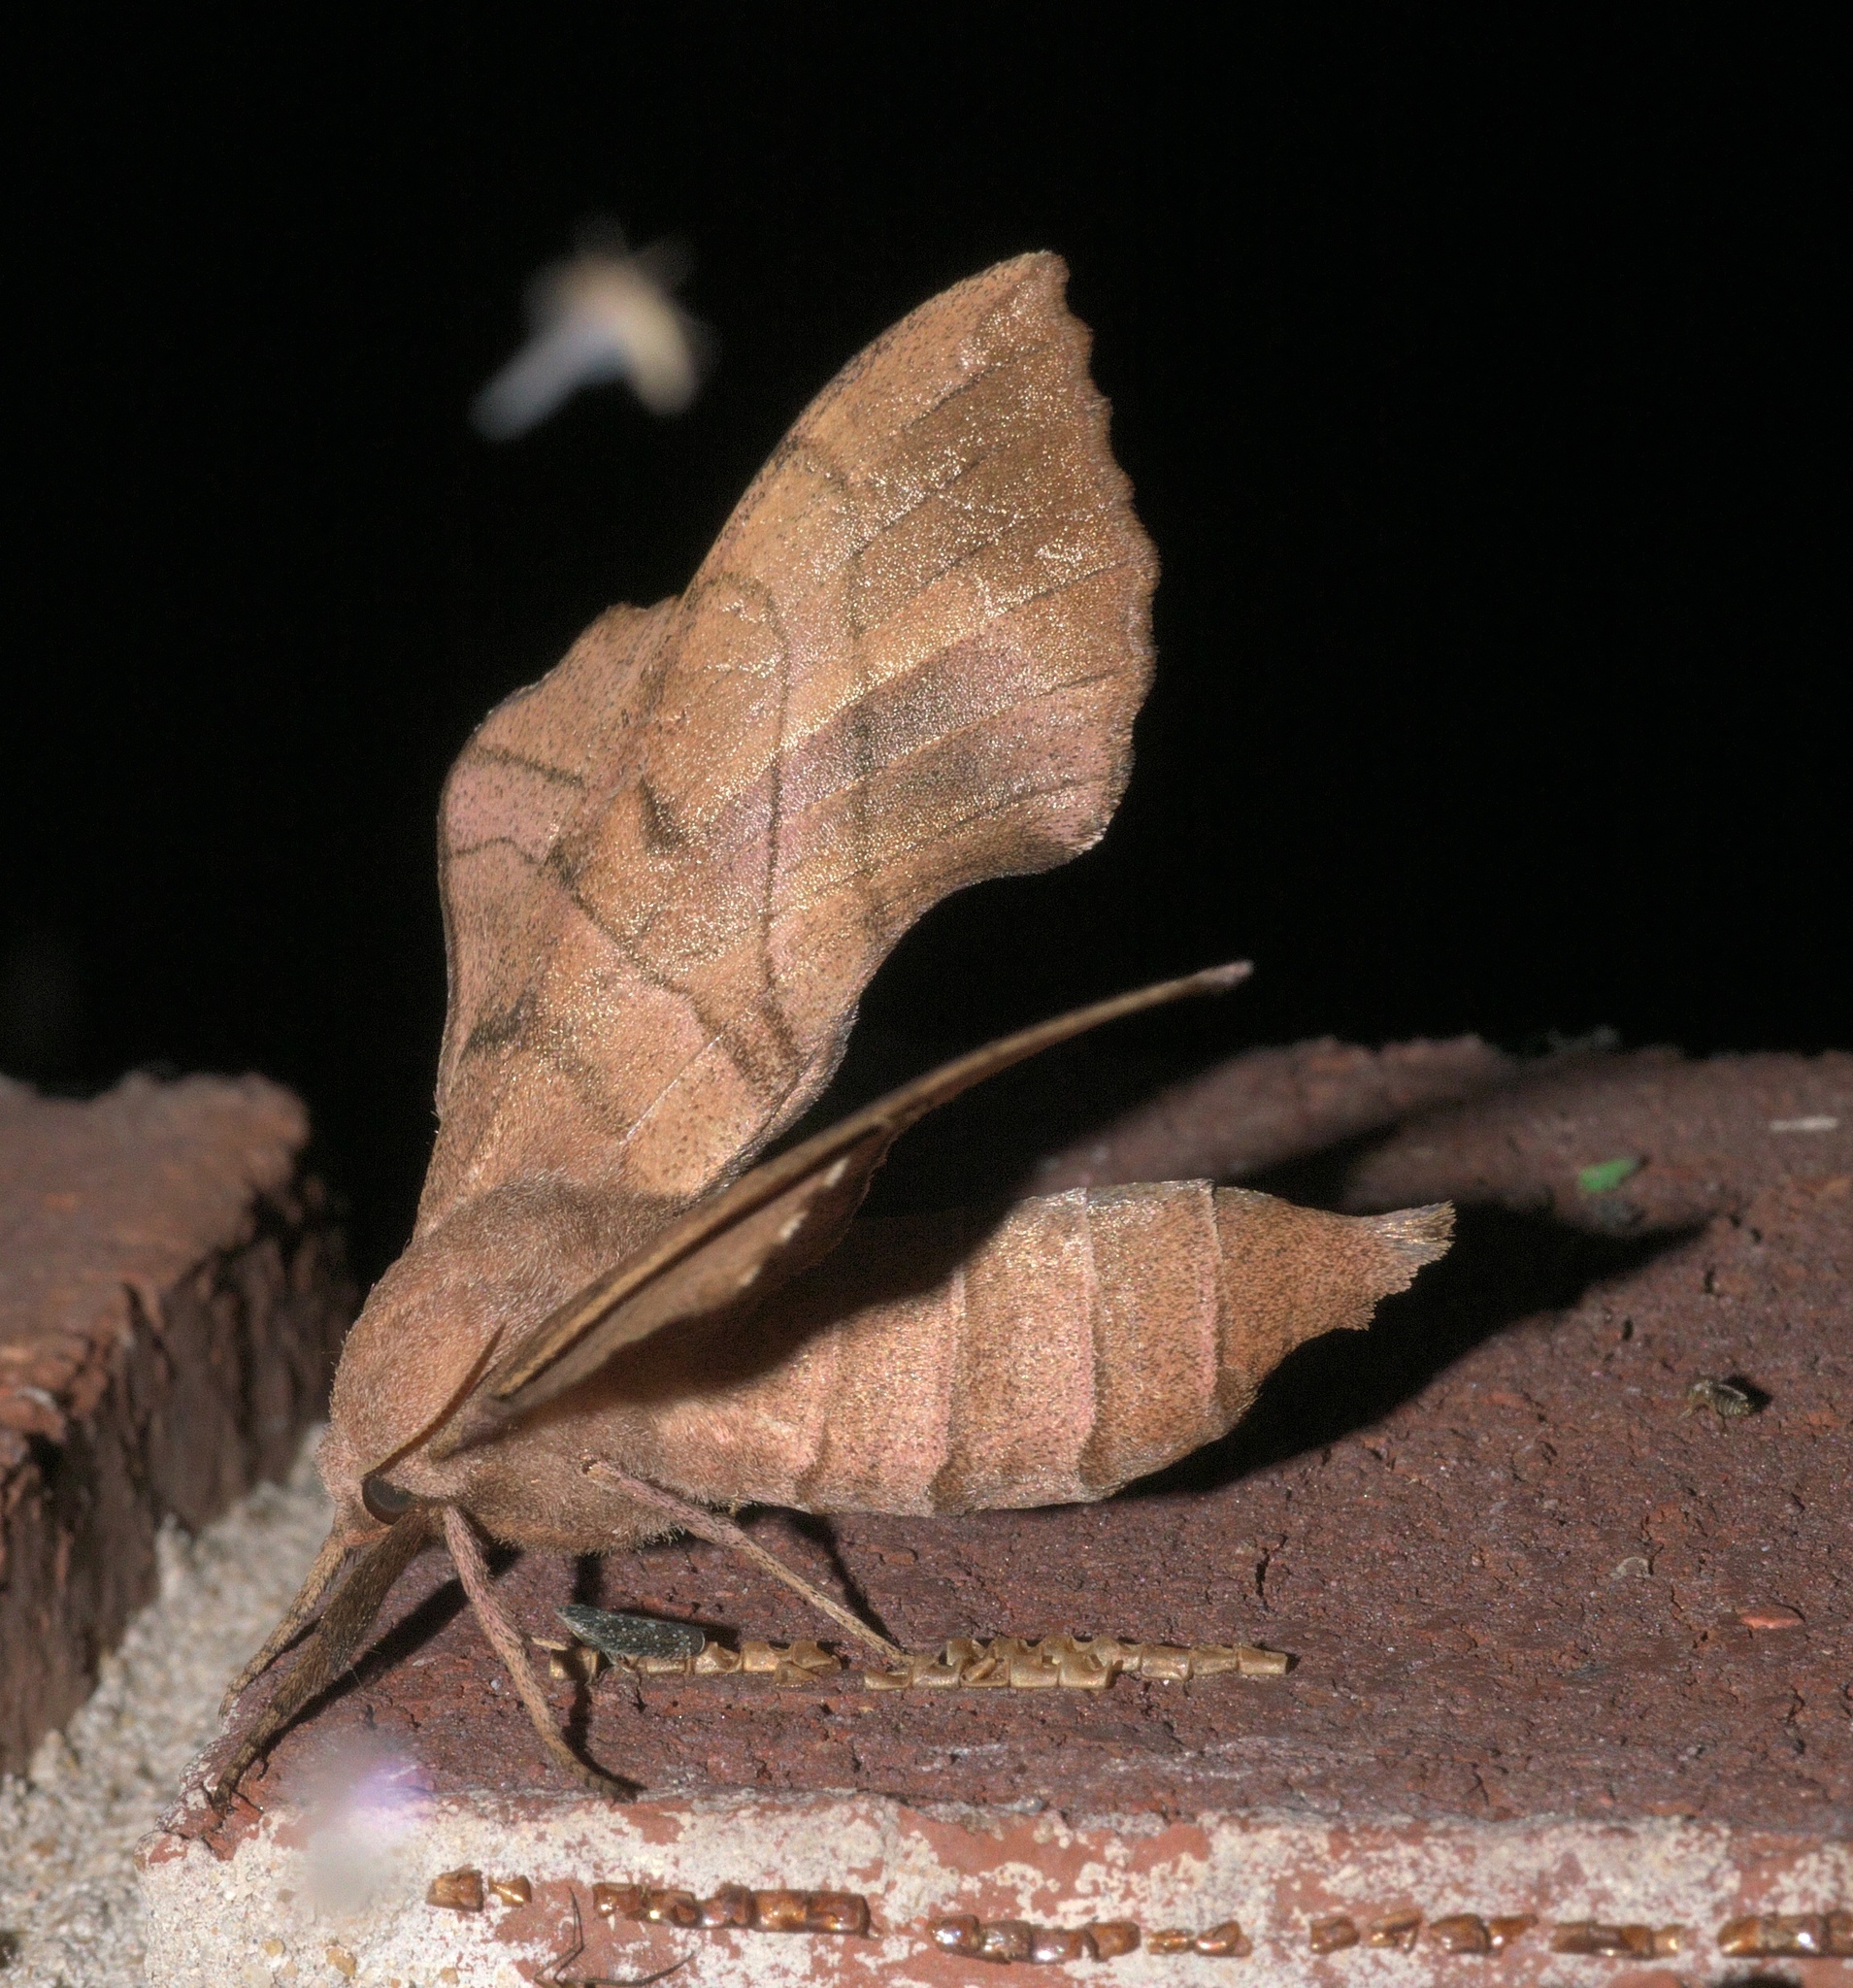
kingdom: Animalia
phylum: Arthropoda
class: Insecta
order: Lepidoptera
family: Sphingidae
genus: Amorpha
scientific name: Amorpha juglandis
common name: Walnut sphinx
